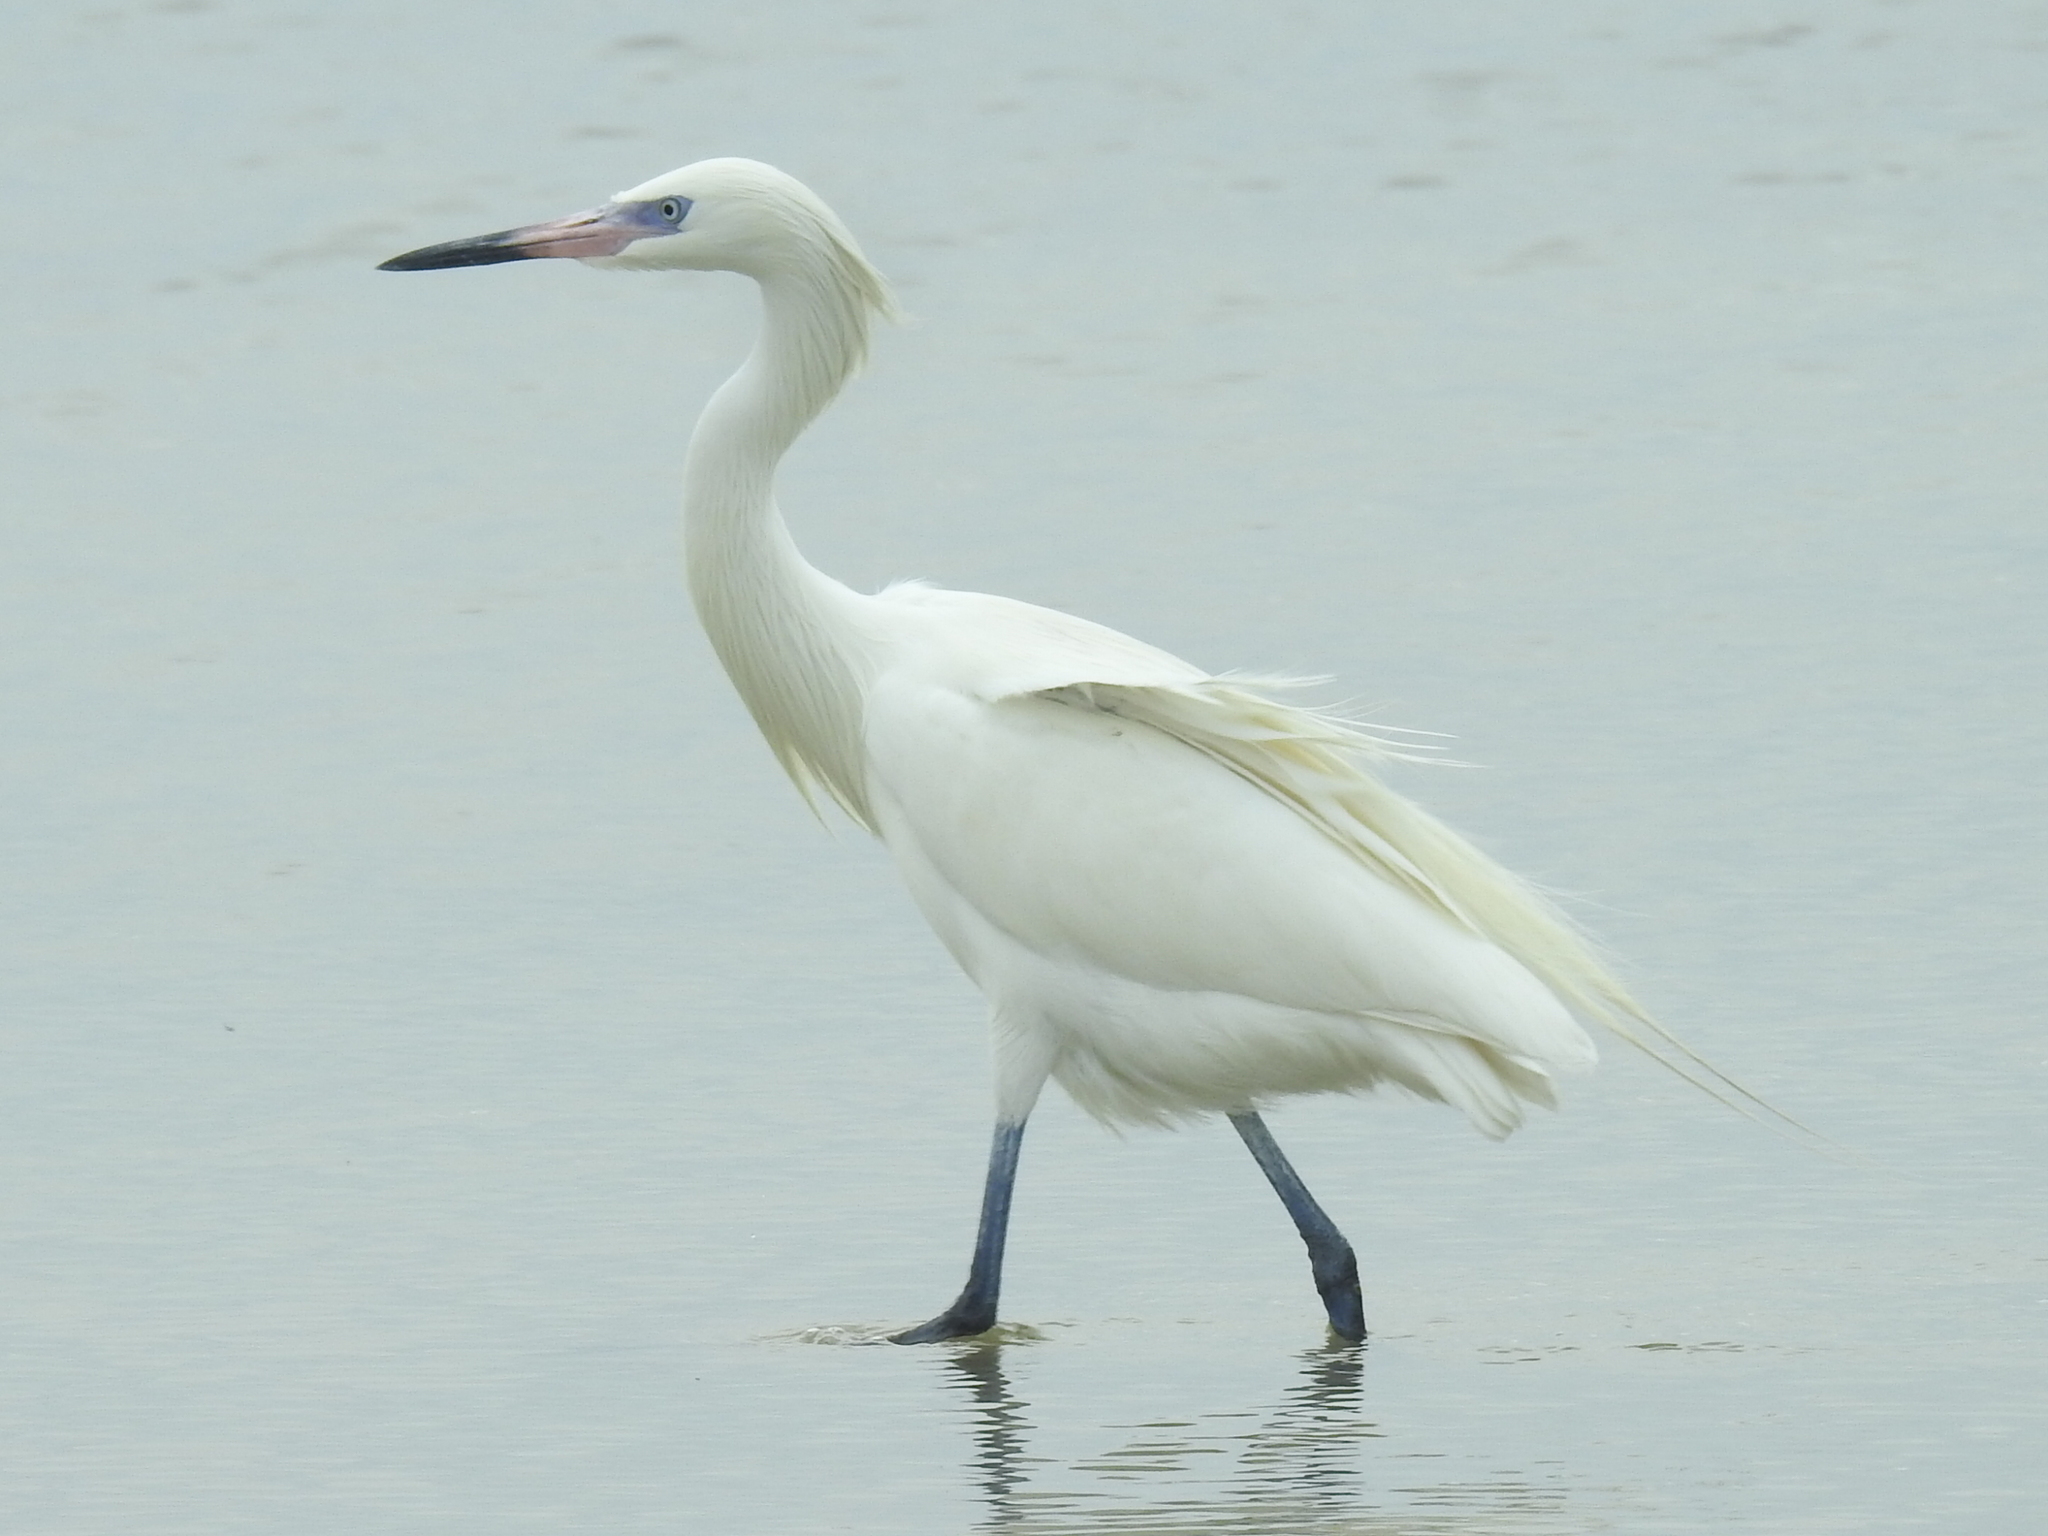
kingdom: Animalia
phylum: Chordata
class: Aves
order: Pelecaniformes
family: Ardeidae
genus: Egretta
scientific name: Egretta rufescens
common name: Reddish egret
